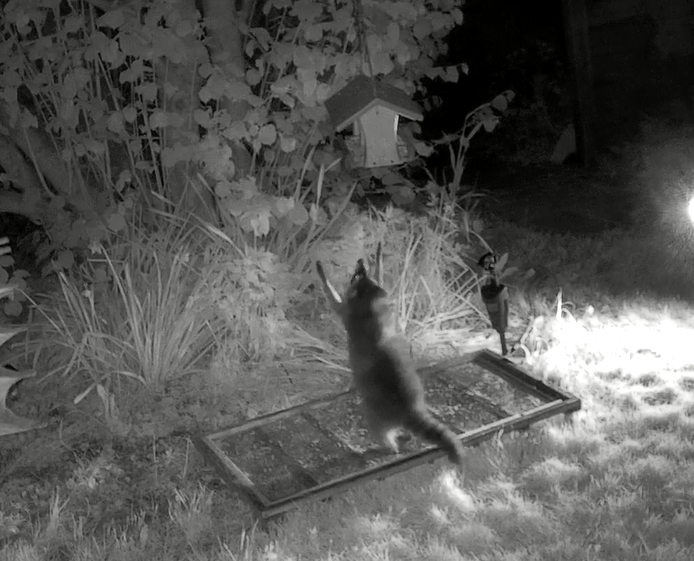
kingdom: Animalia
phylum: Chordata
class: Mammalia
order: Carnivora
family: Procyonidae
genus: Procyon
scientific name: Procyon lotor
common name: Raccoon
